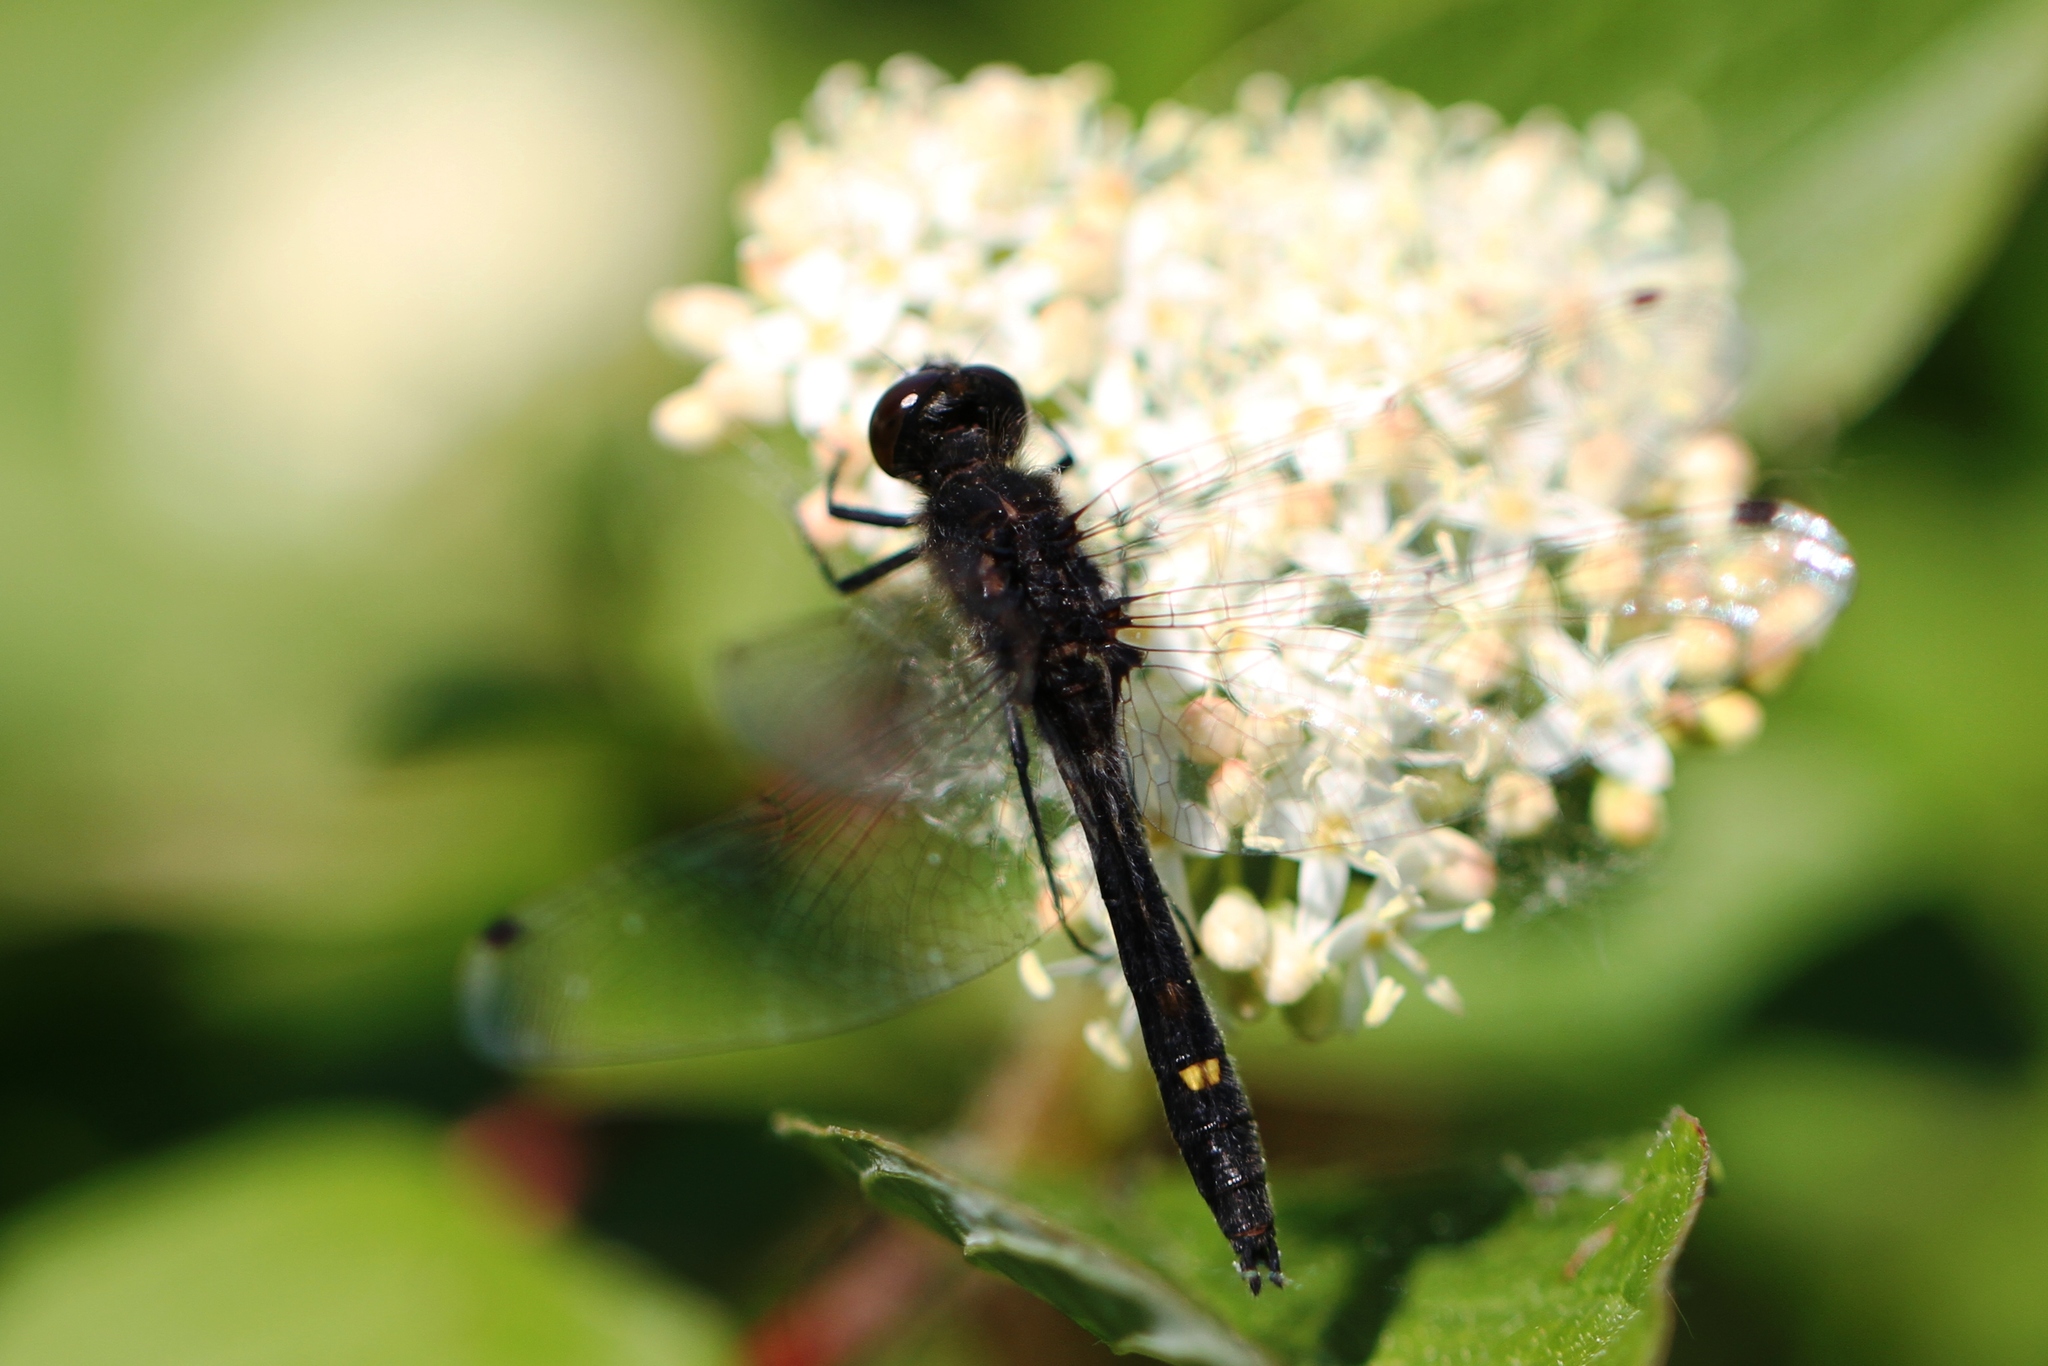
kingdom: Animalia
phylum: Arthropoda
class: Insecta
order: Odonata
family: Libellulidae
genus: Leucorrhinia
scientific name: Leucorrhinia intacta
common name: Dot-tailed whiteface
